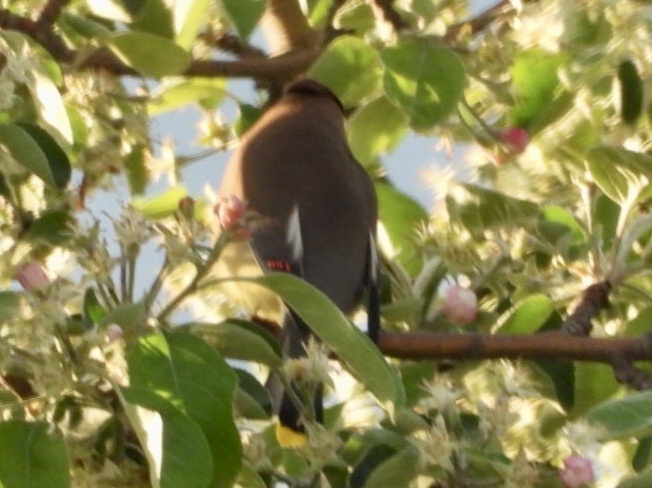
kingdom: Animalia
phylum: Chordata
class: Aves
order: Passeriformes
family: Bombycillidae
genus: Bombycilla
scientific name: Bombycilla cedrorum
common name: Cedar waxwing
